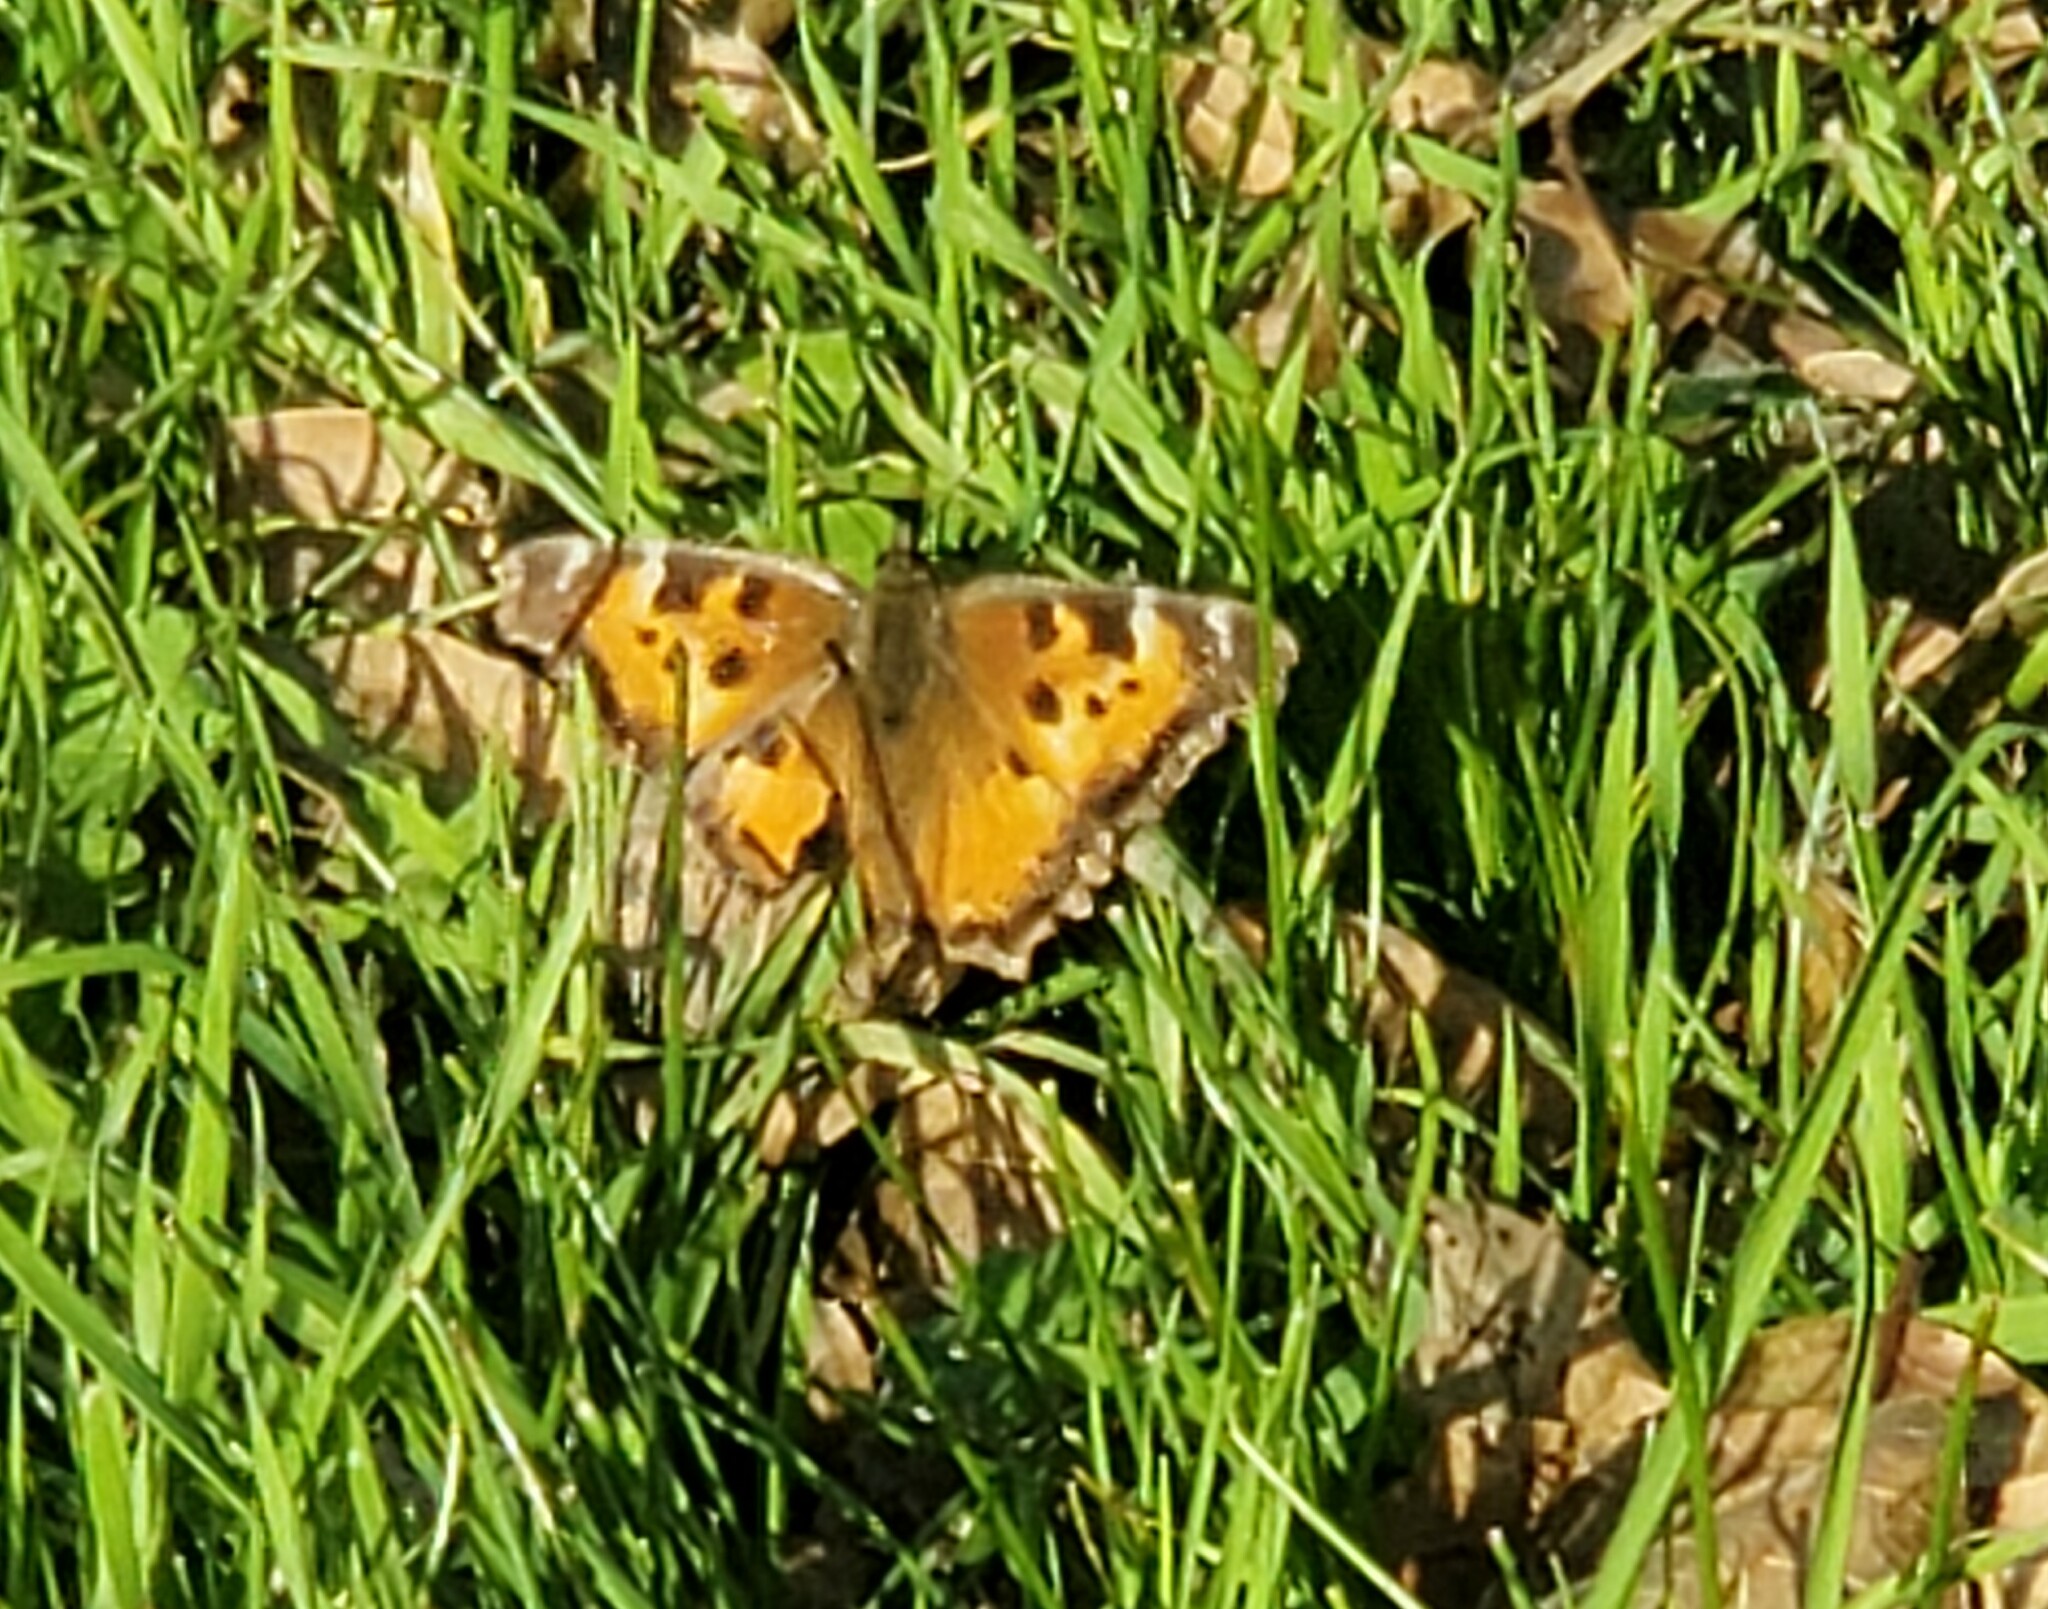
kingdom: Animalia
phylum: Arthropoda
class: Insecta
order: Lepidoptera
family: Nymphalidae
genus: Nymphalis
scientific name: Nymphalis californica
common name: California tortoiseshell
